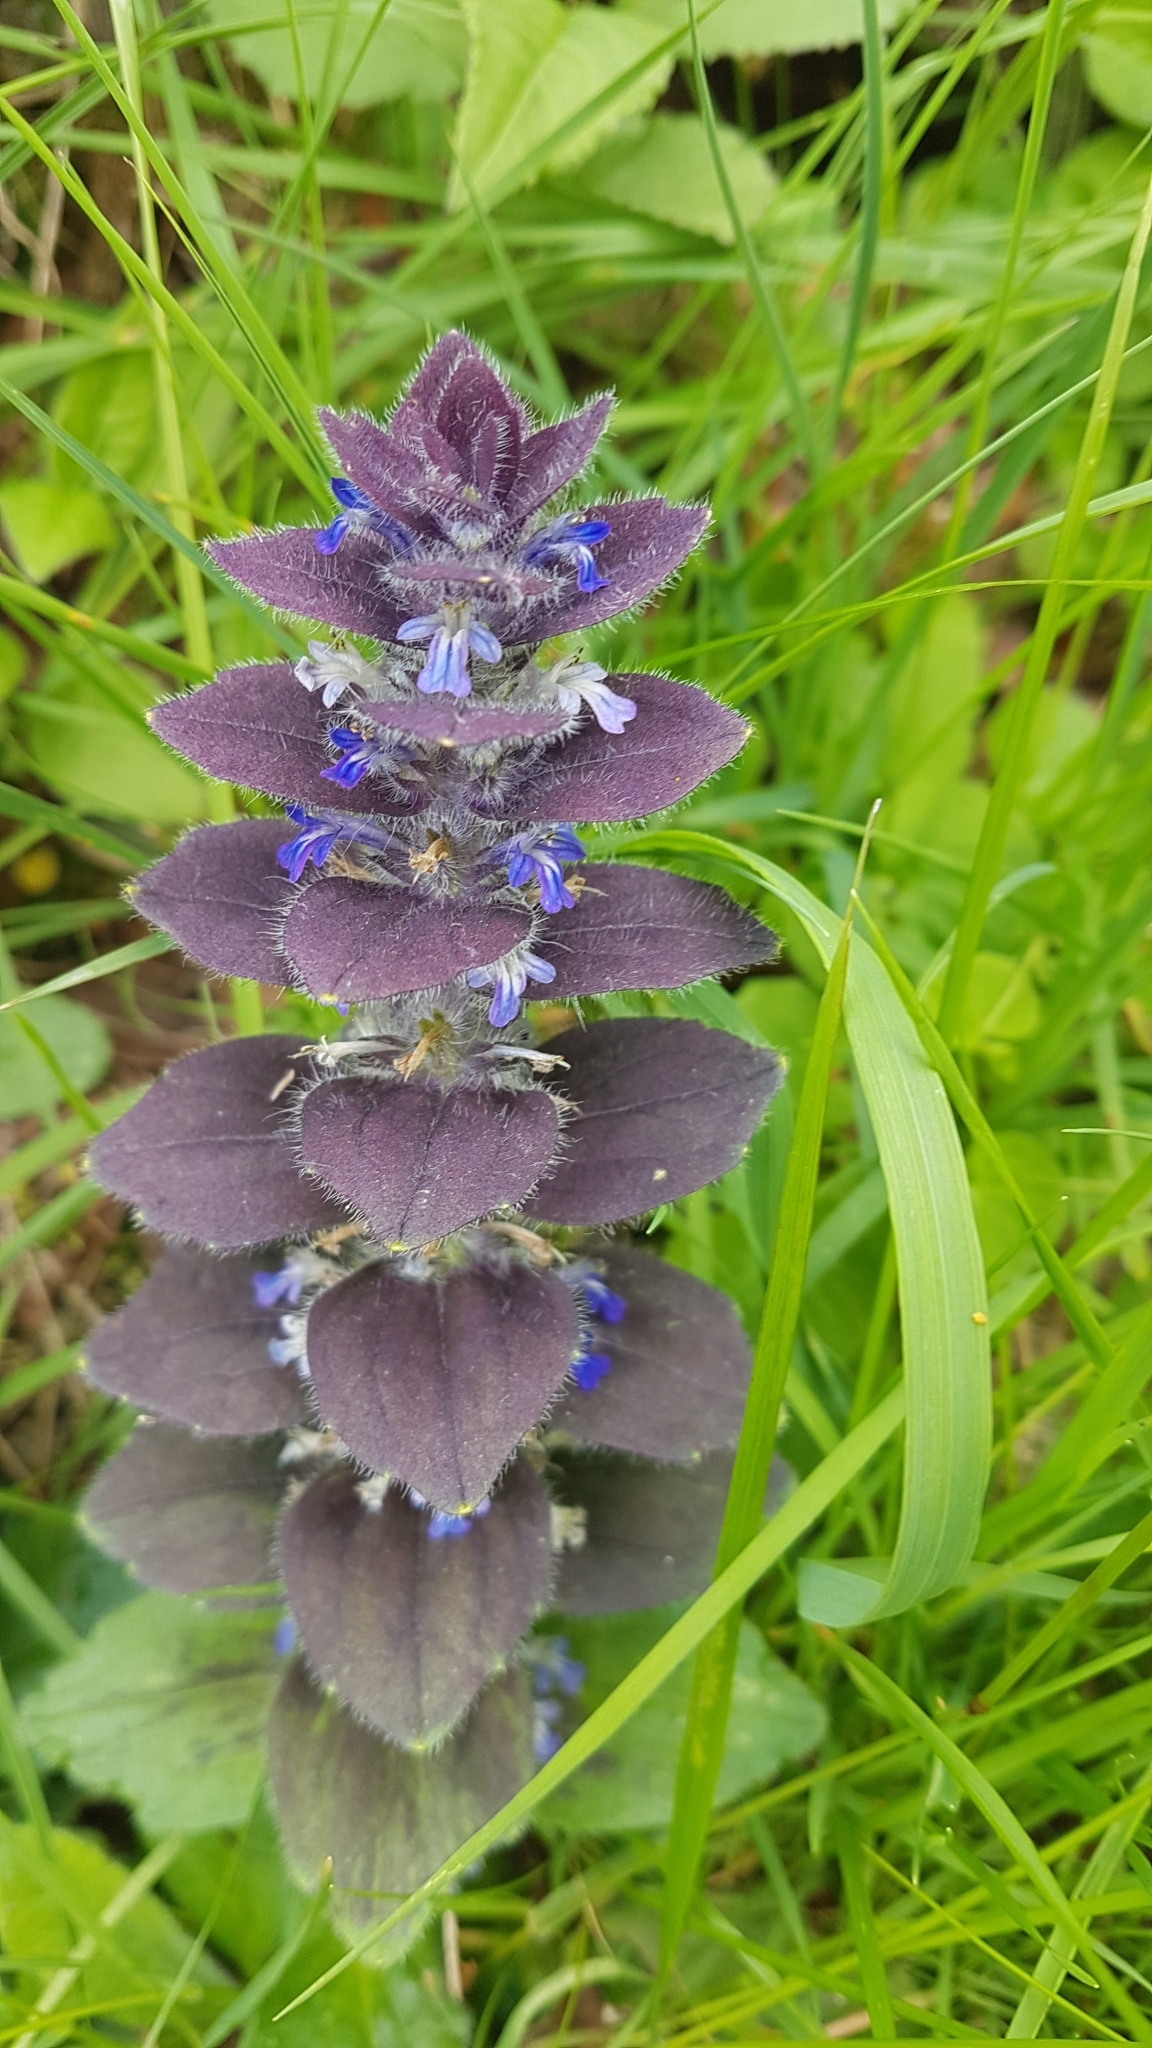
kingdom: Plantae
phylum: Tracheophyta
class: Magnoliopsida
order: Lamiales
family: Lamiaceae
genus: Ajuga
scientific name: Ajuga pyramidalis
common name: Pyramid bugle
